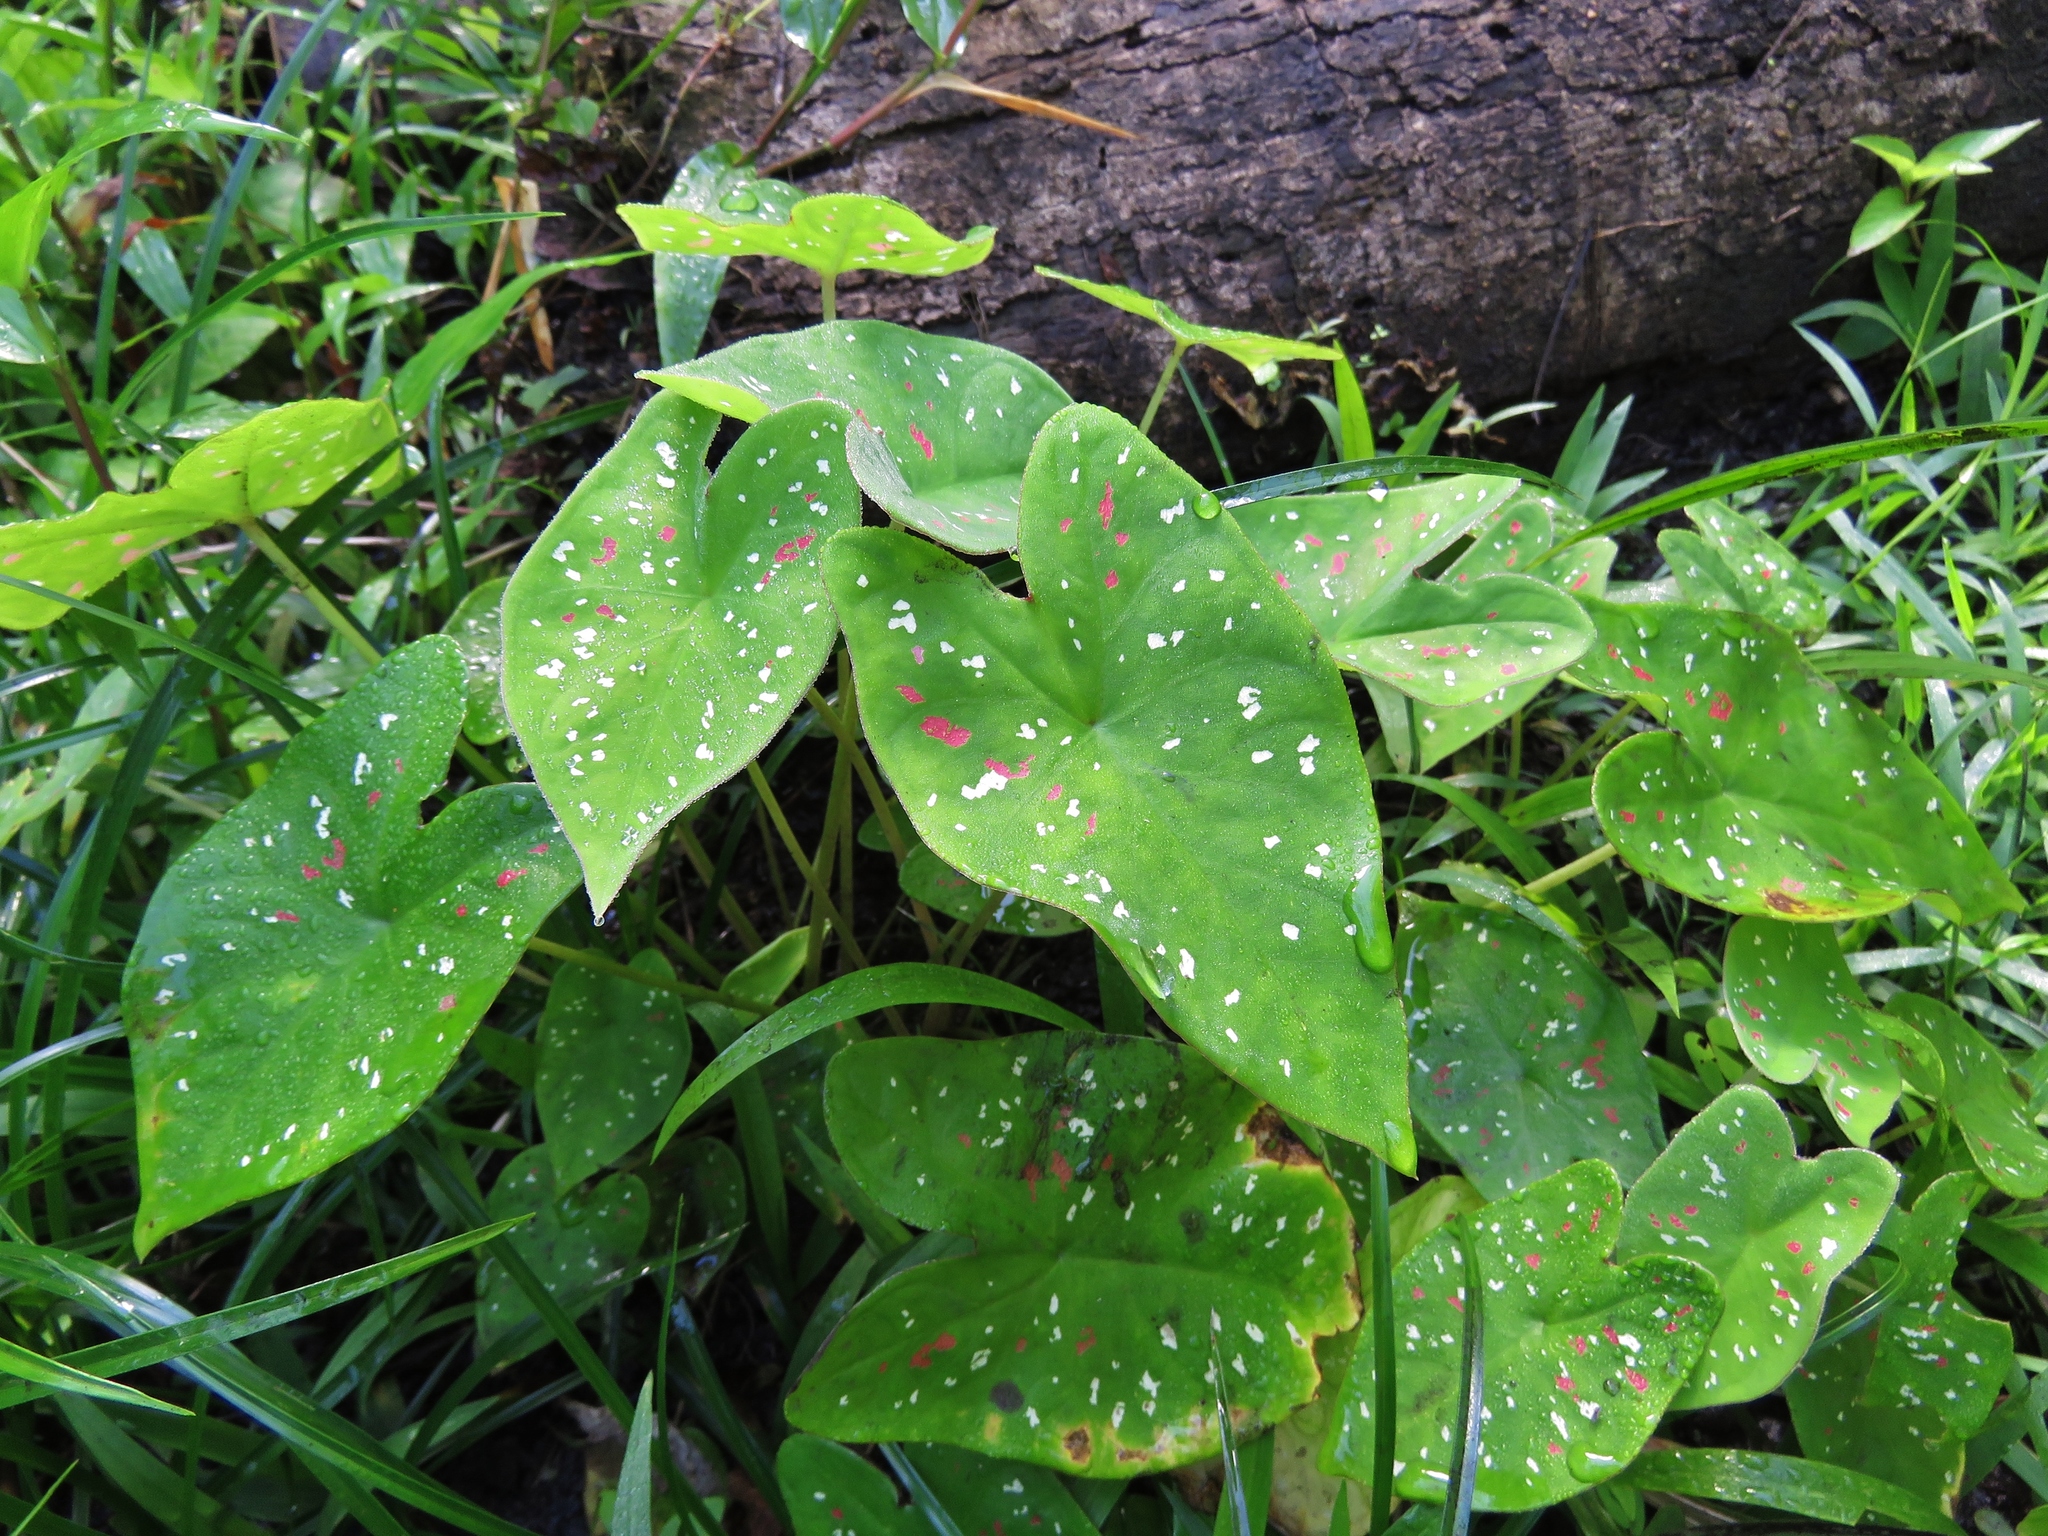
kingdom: Plantae
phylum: Tracheophyta
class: Liliopsida
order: Alismatales
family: Araceae
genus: Caladium
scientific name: Caladium bicolor
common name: Artist's pallet
